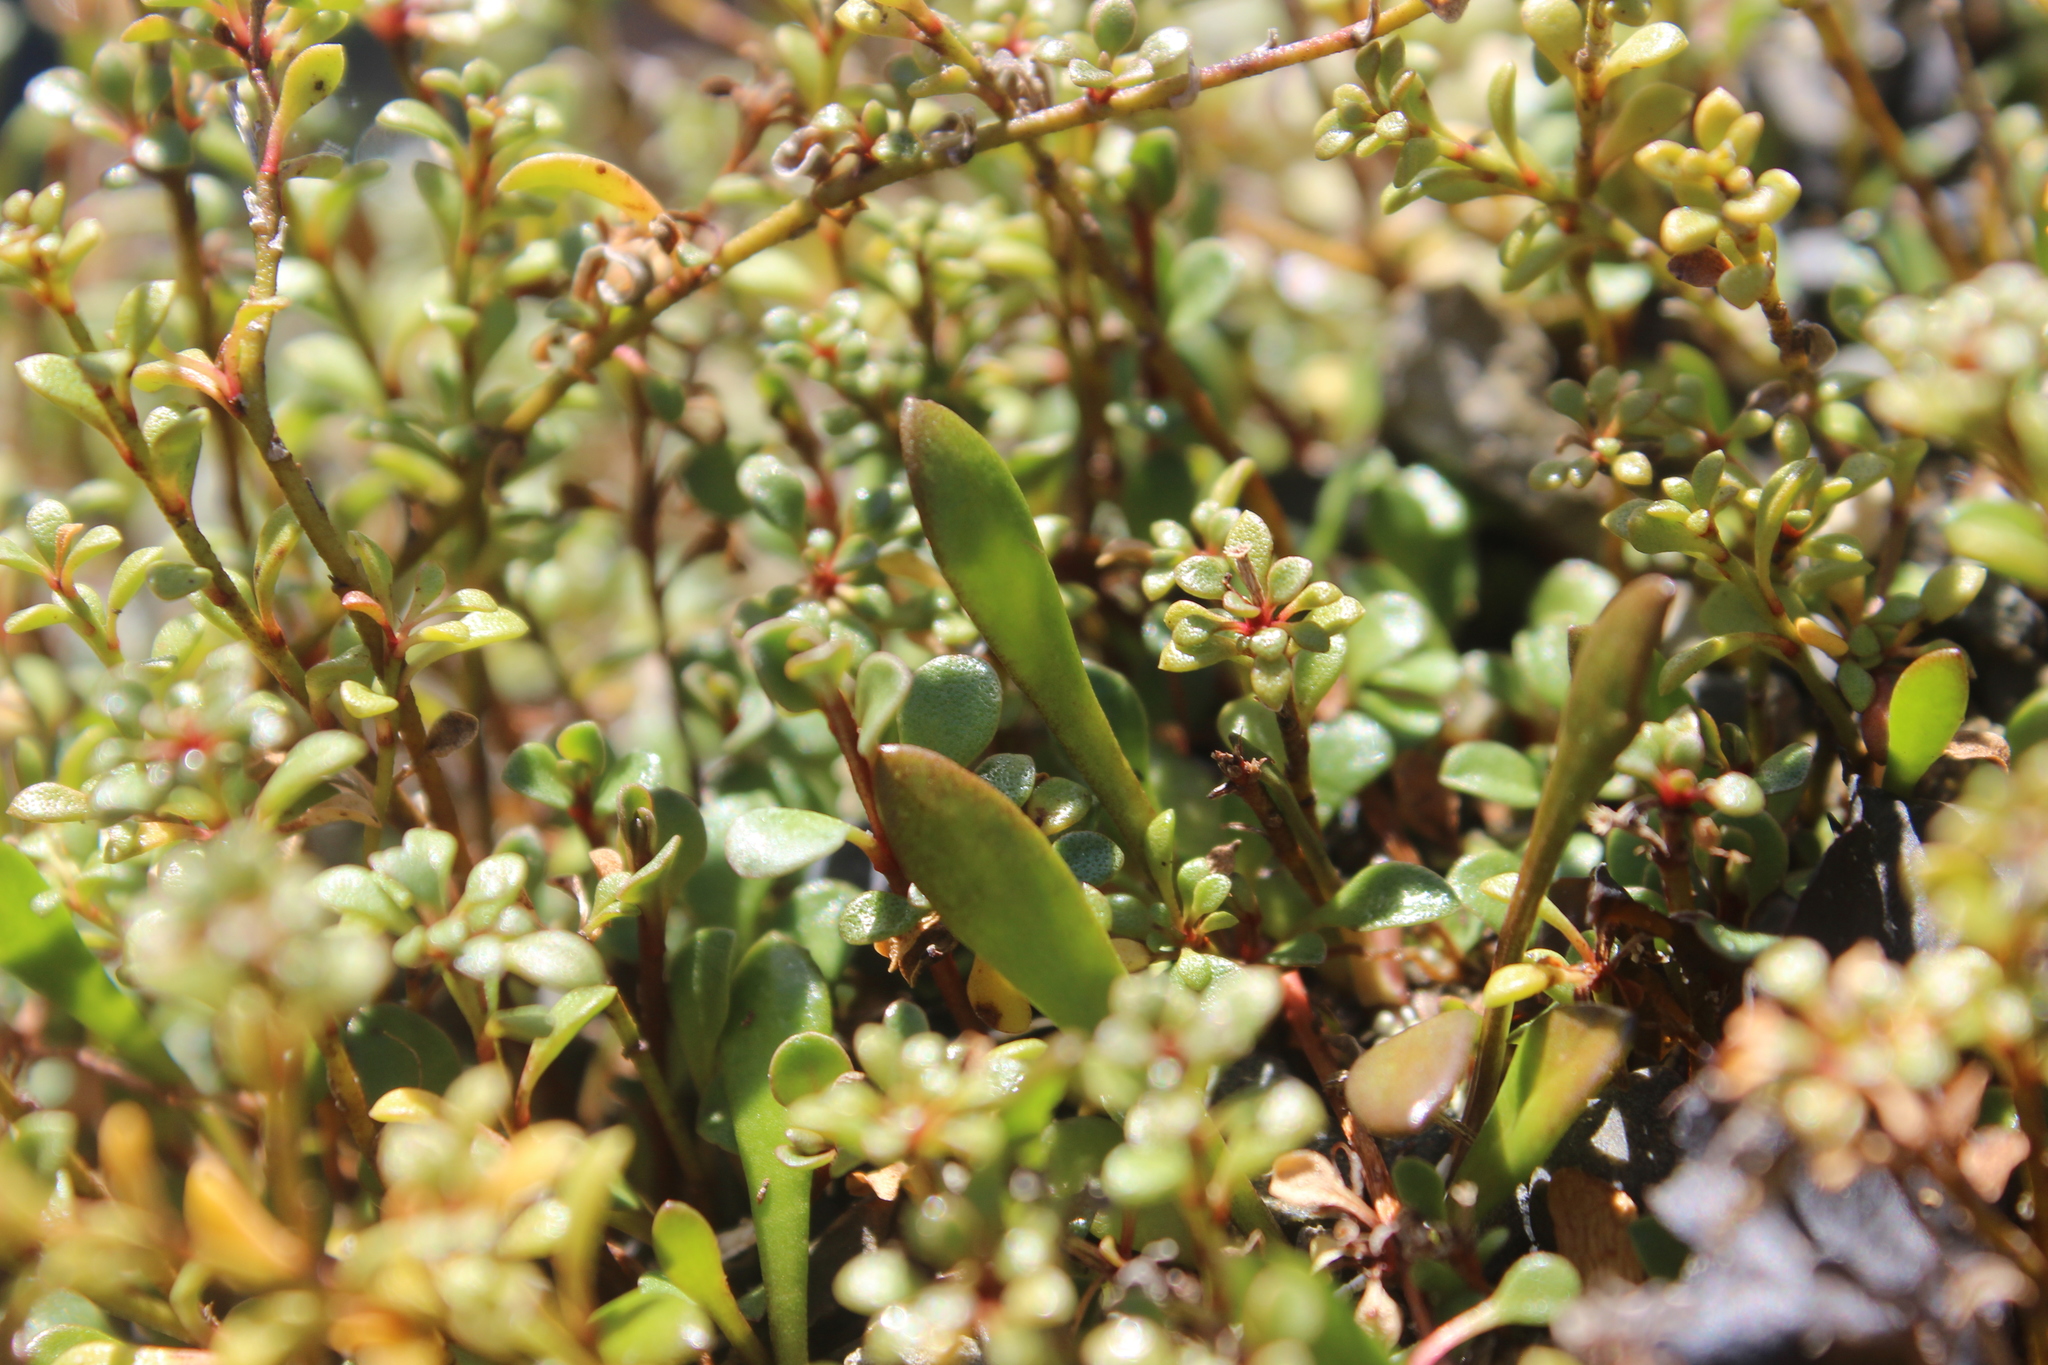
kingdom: Plantae
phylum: Tracheophyta
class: Magnoliopsida
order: Asterales
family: Goodeniaceae
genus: Goodenia
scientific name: Goodenia radicans
